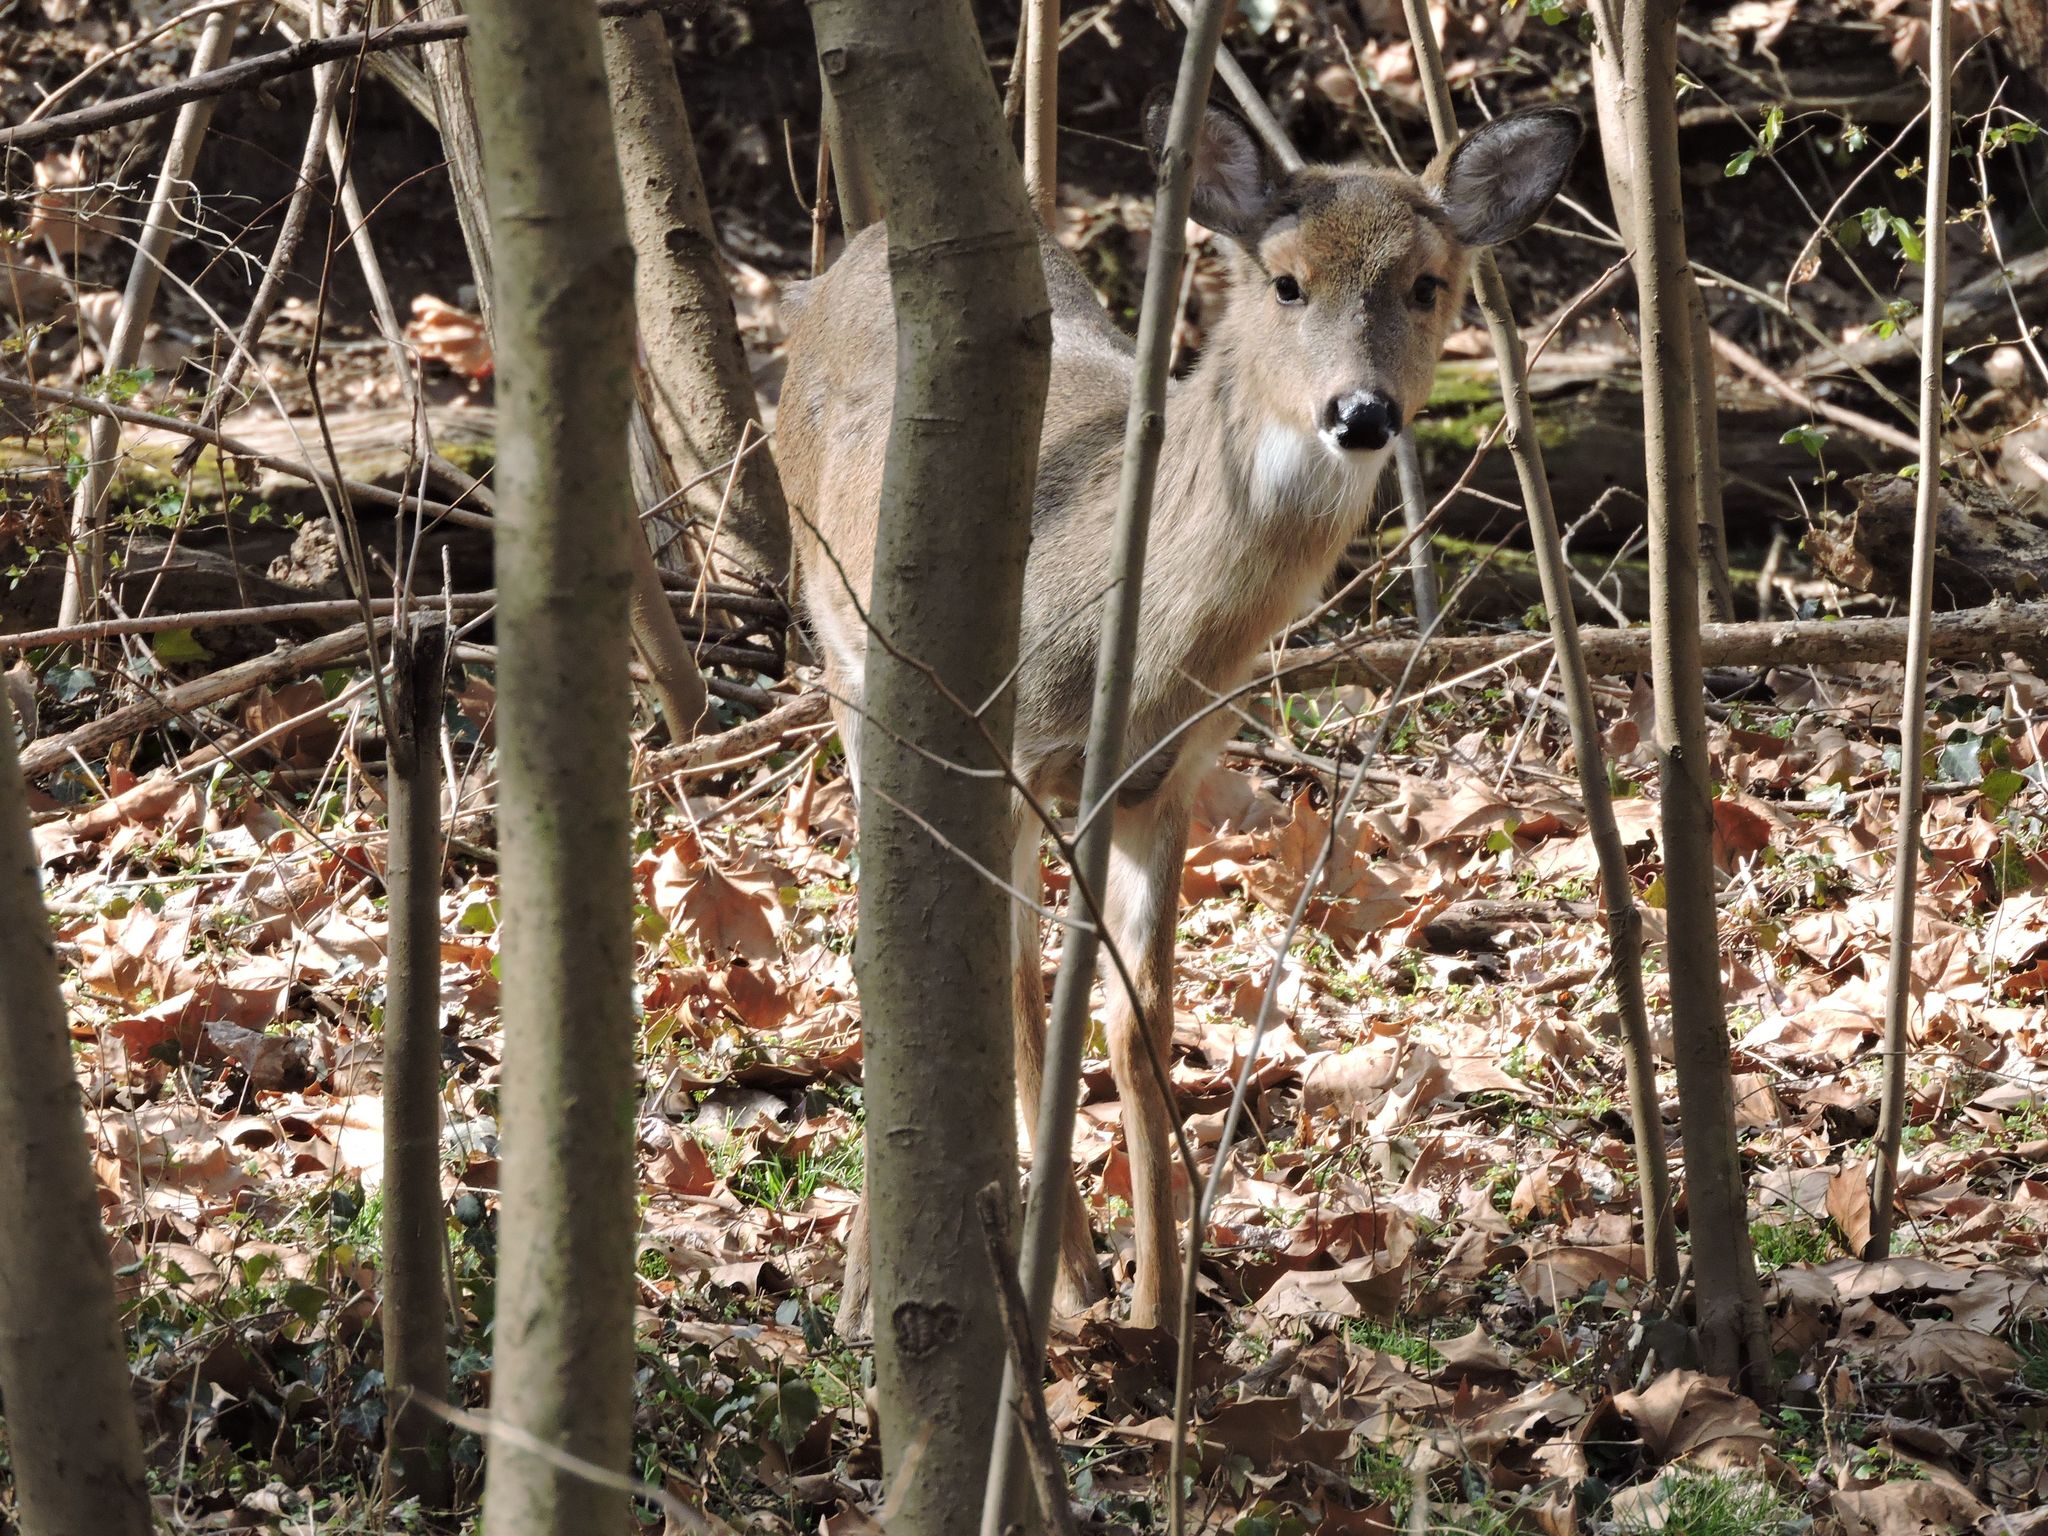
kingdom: Animalia
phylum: Chordata
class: Mammalia
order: Artiodactyla
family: Cervidae
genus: Odocoileus
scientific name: Odocoileus virginianus
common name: White-tailed deer
